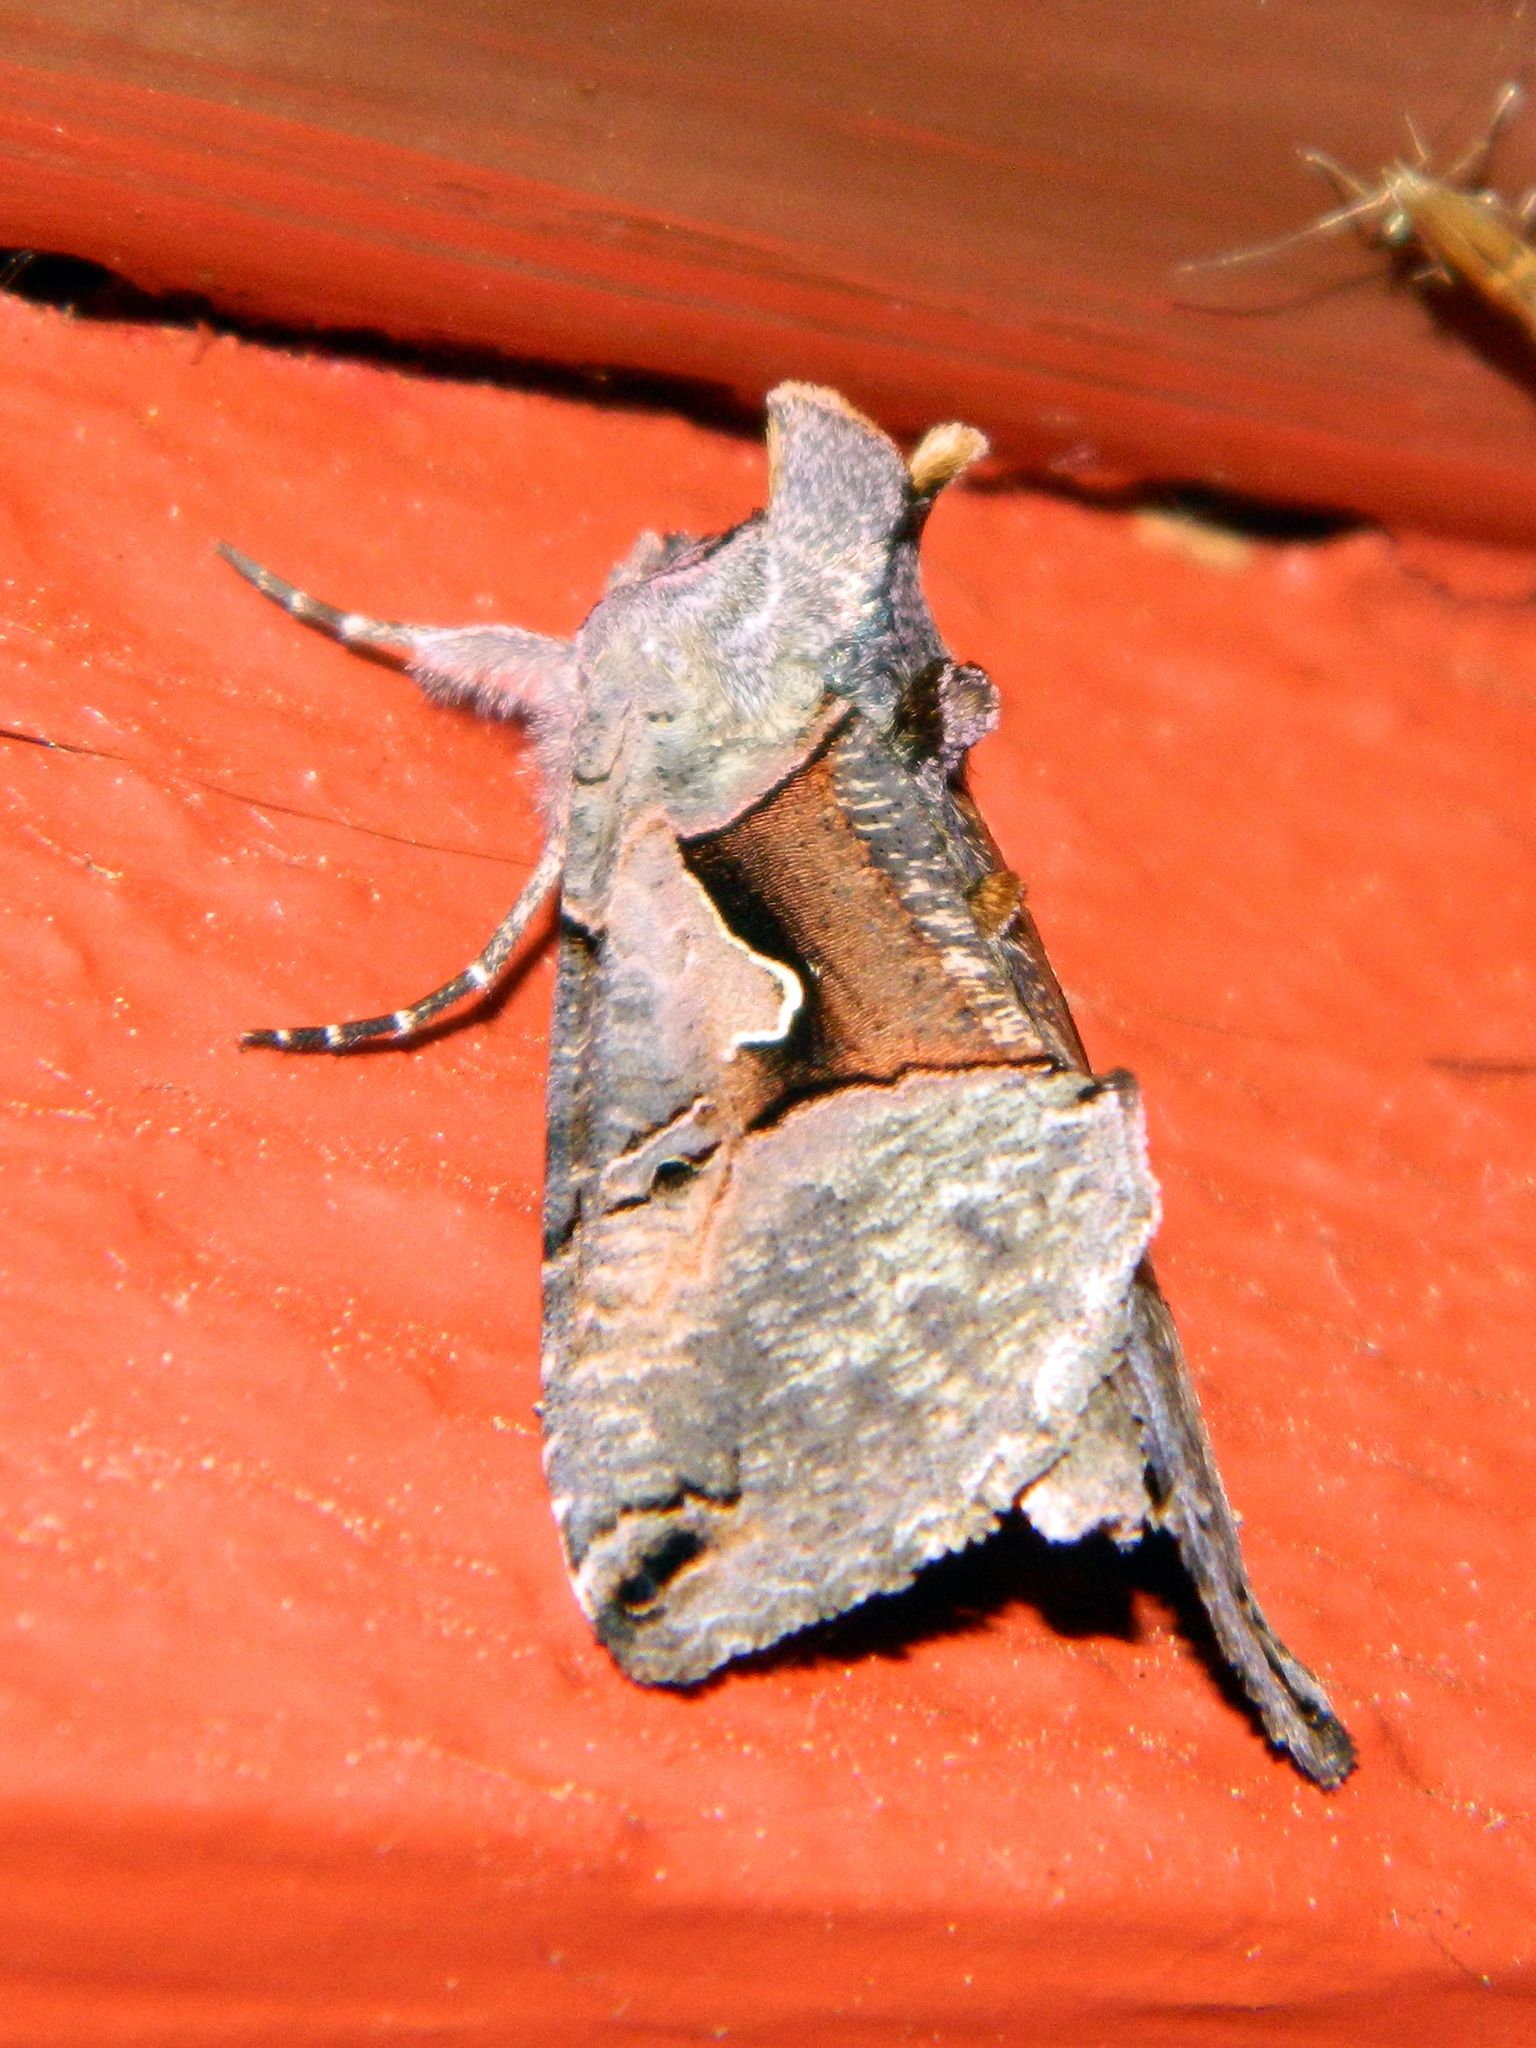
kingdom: Animalia
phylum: Arthropoda
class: Insecta
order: Lepidoptera
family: Noctuidae
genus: Autographa
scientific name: Autographa ampla
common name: Large looper moth
